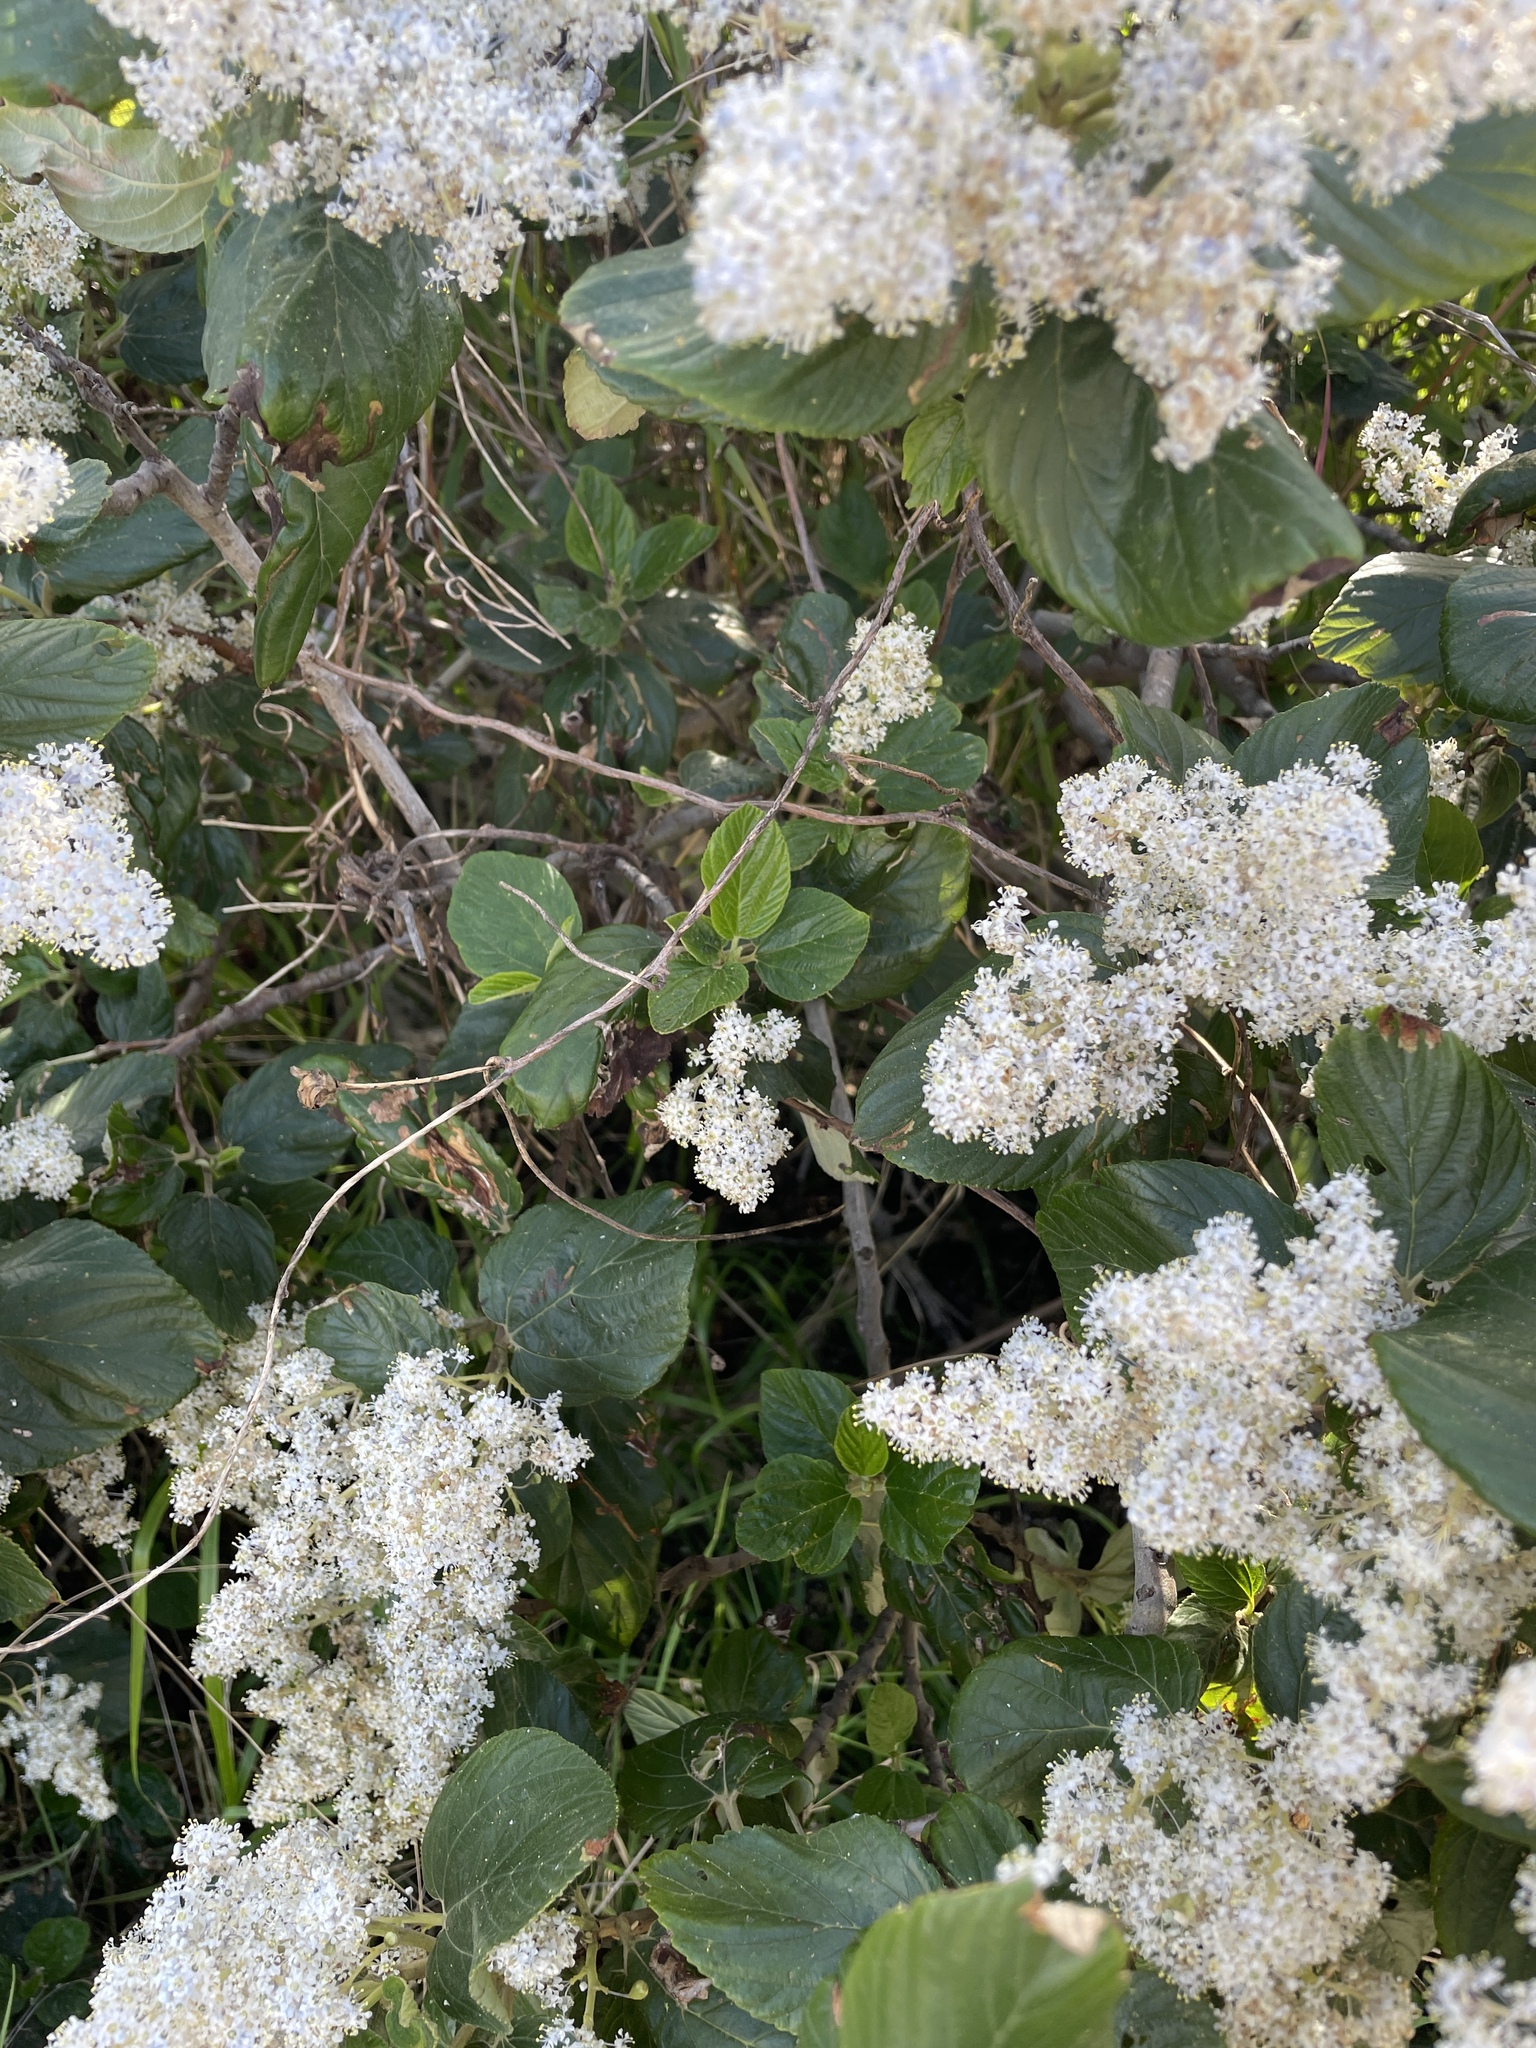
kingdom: Plantae
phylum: Tracheophyta
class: Magnoliopsida
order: Rosales
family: Rhamnaceae
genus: Ceanothus
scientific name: Ceanothus arboreus
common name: Catalina mountain-lilac
